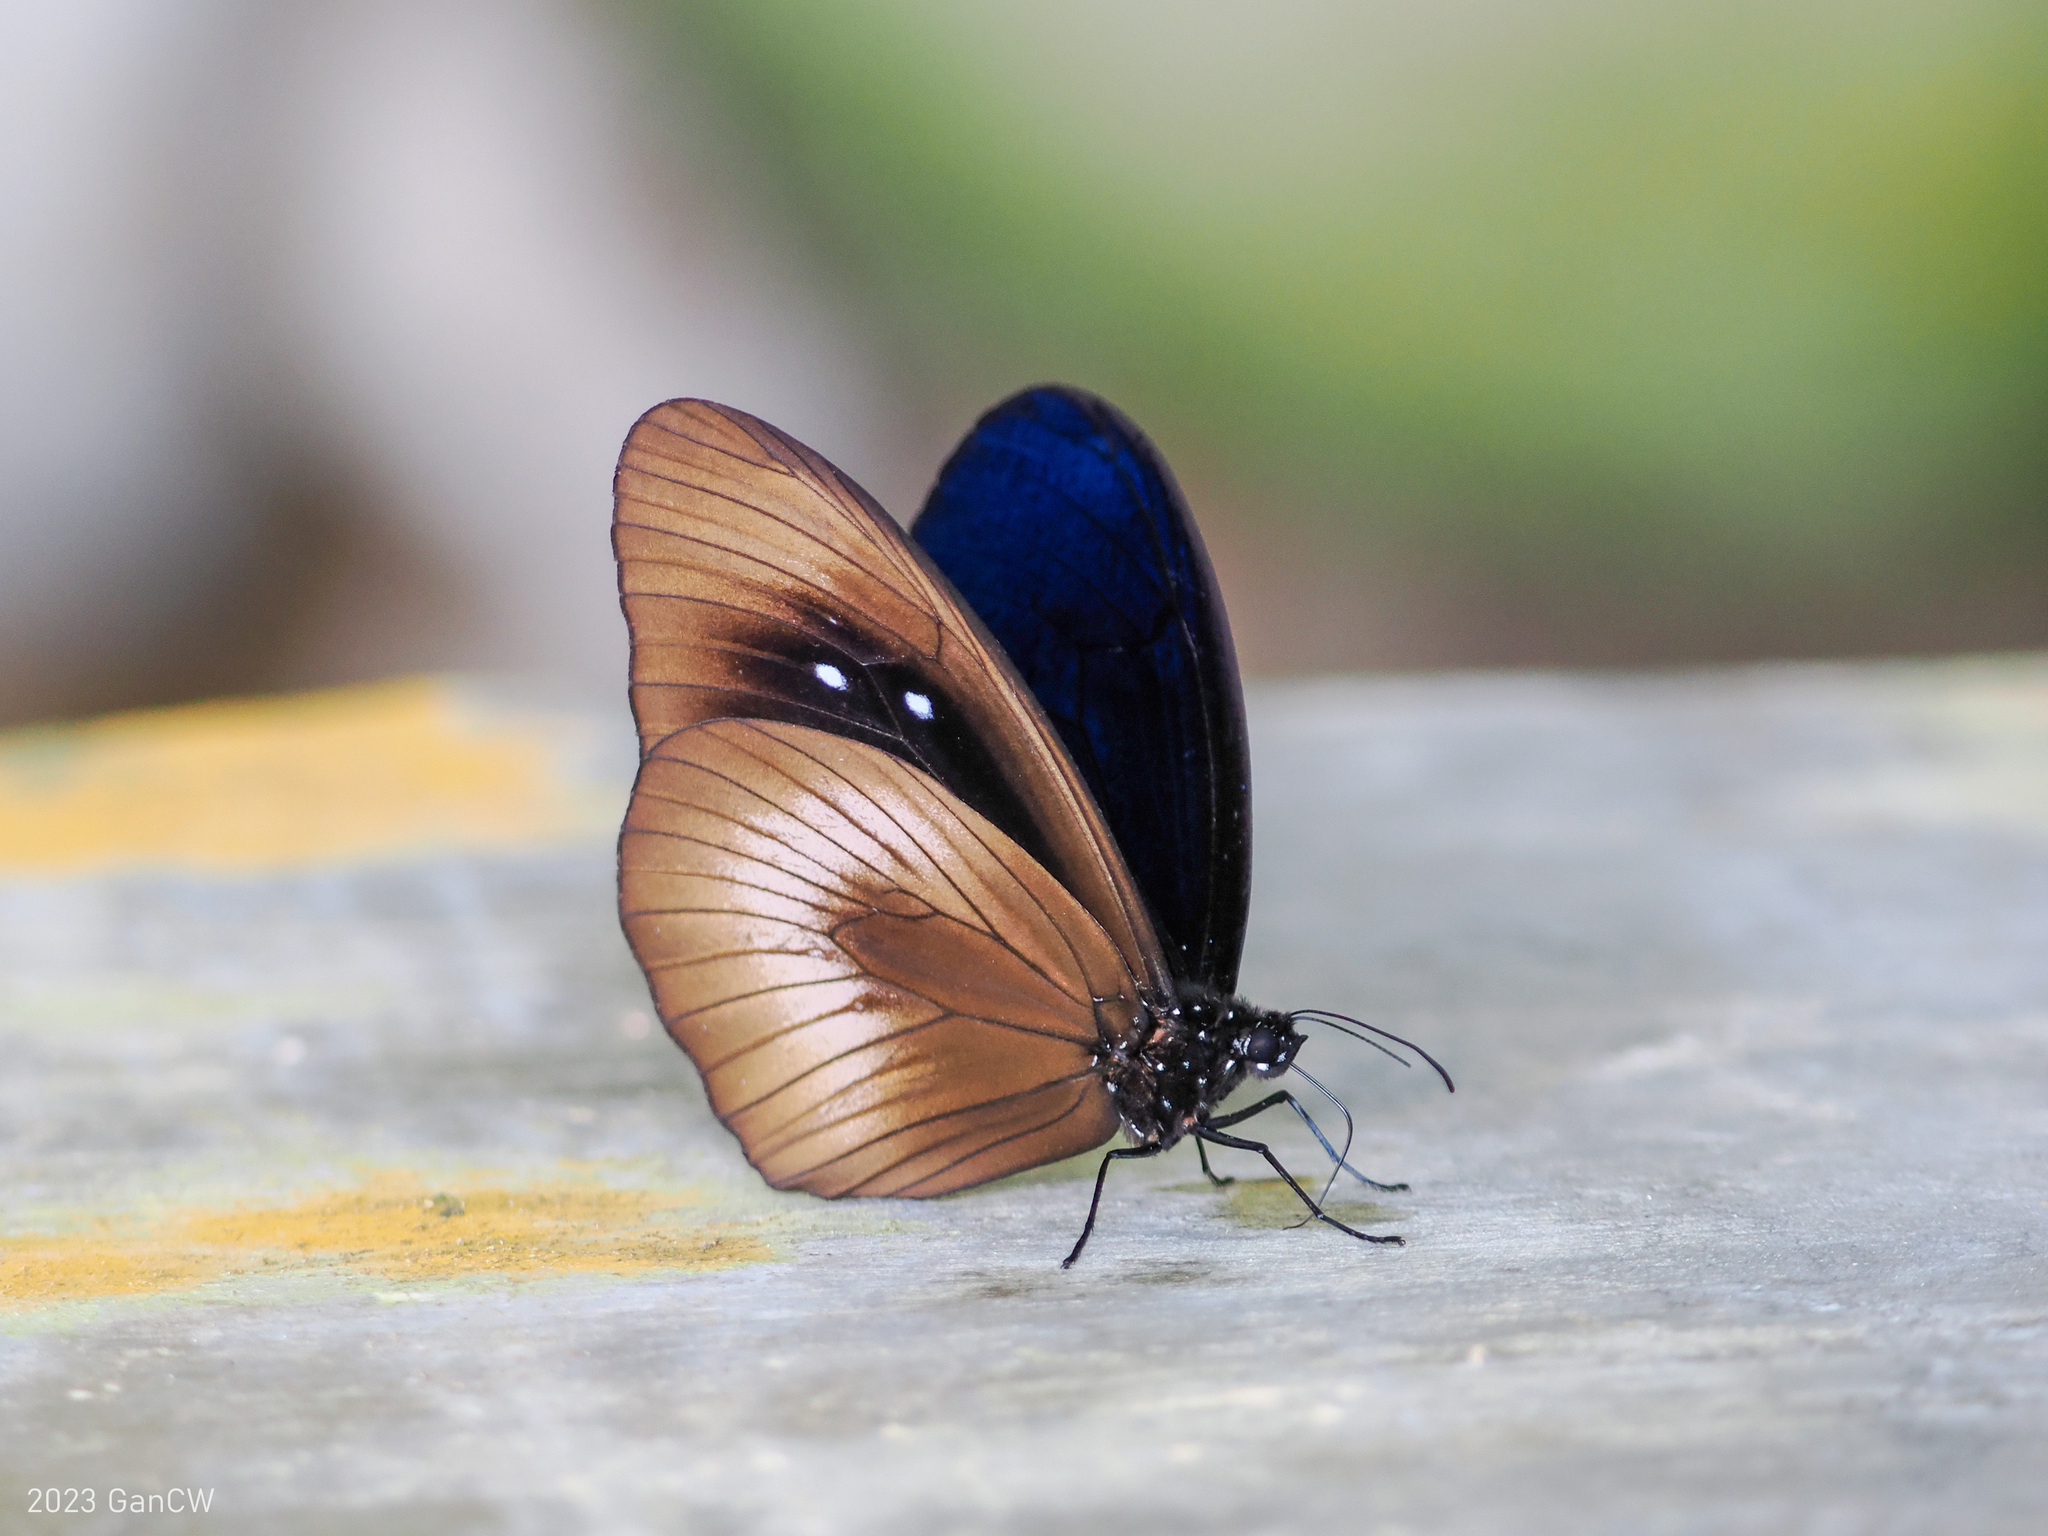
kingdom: Animalia
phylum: Arthropoda
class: Insecta
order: Lepidoptera
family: Nymphalidae
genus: Euploea
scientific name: Euploea magou
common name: Magou
